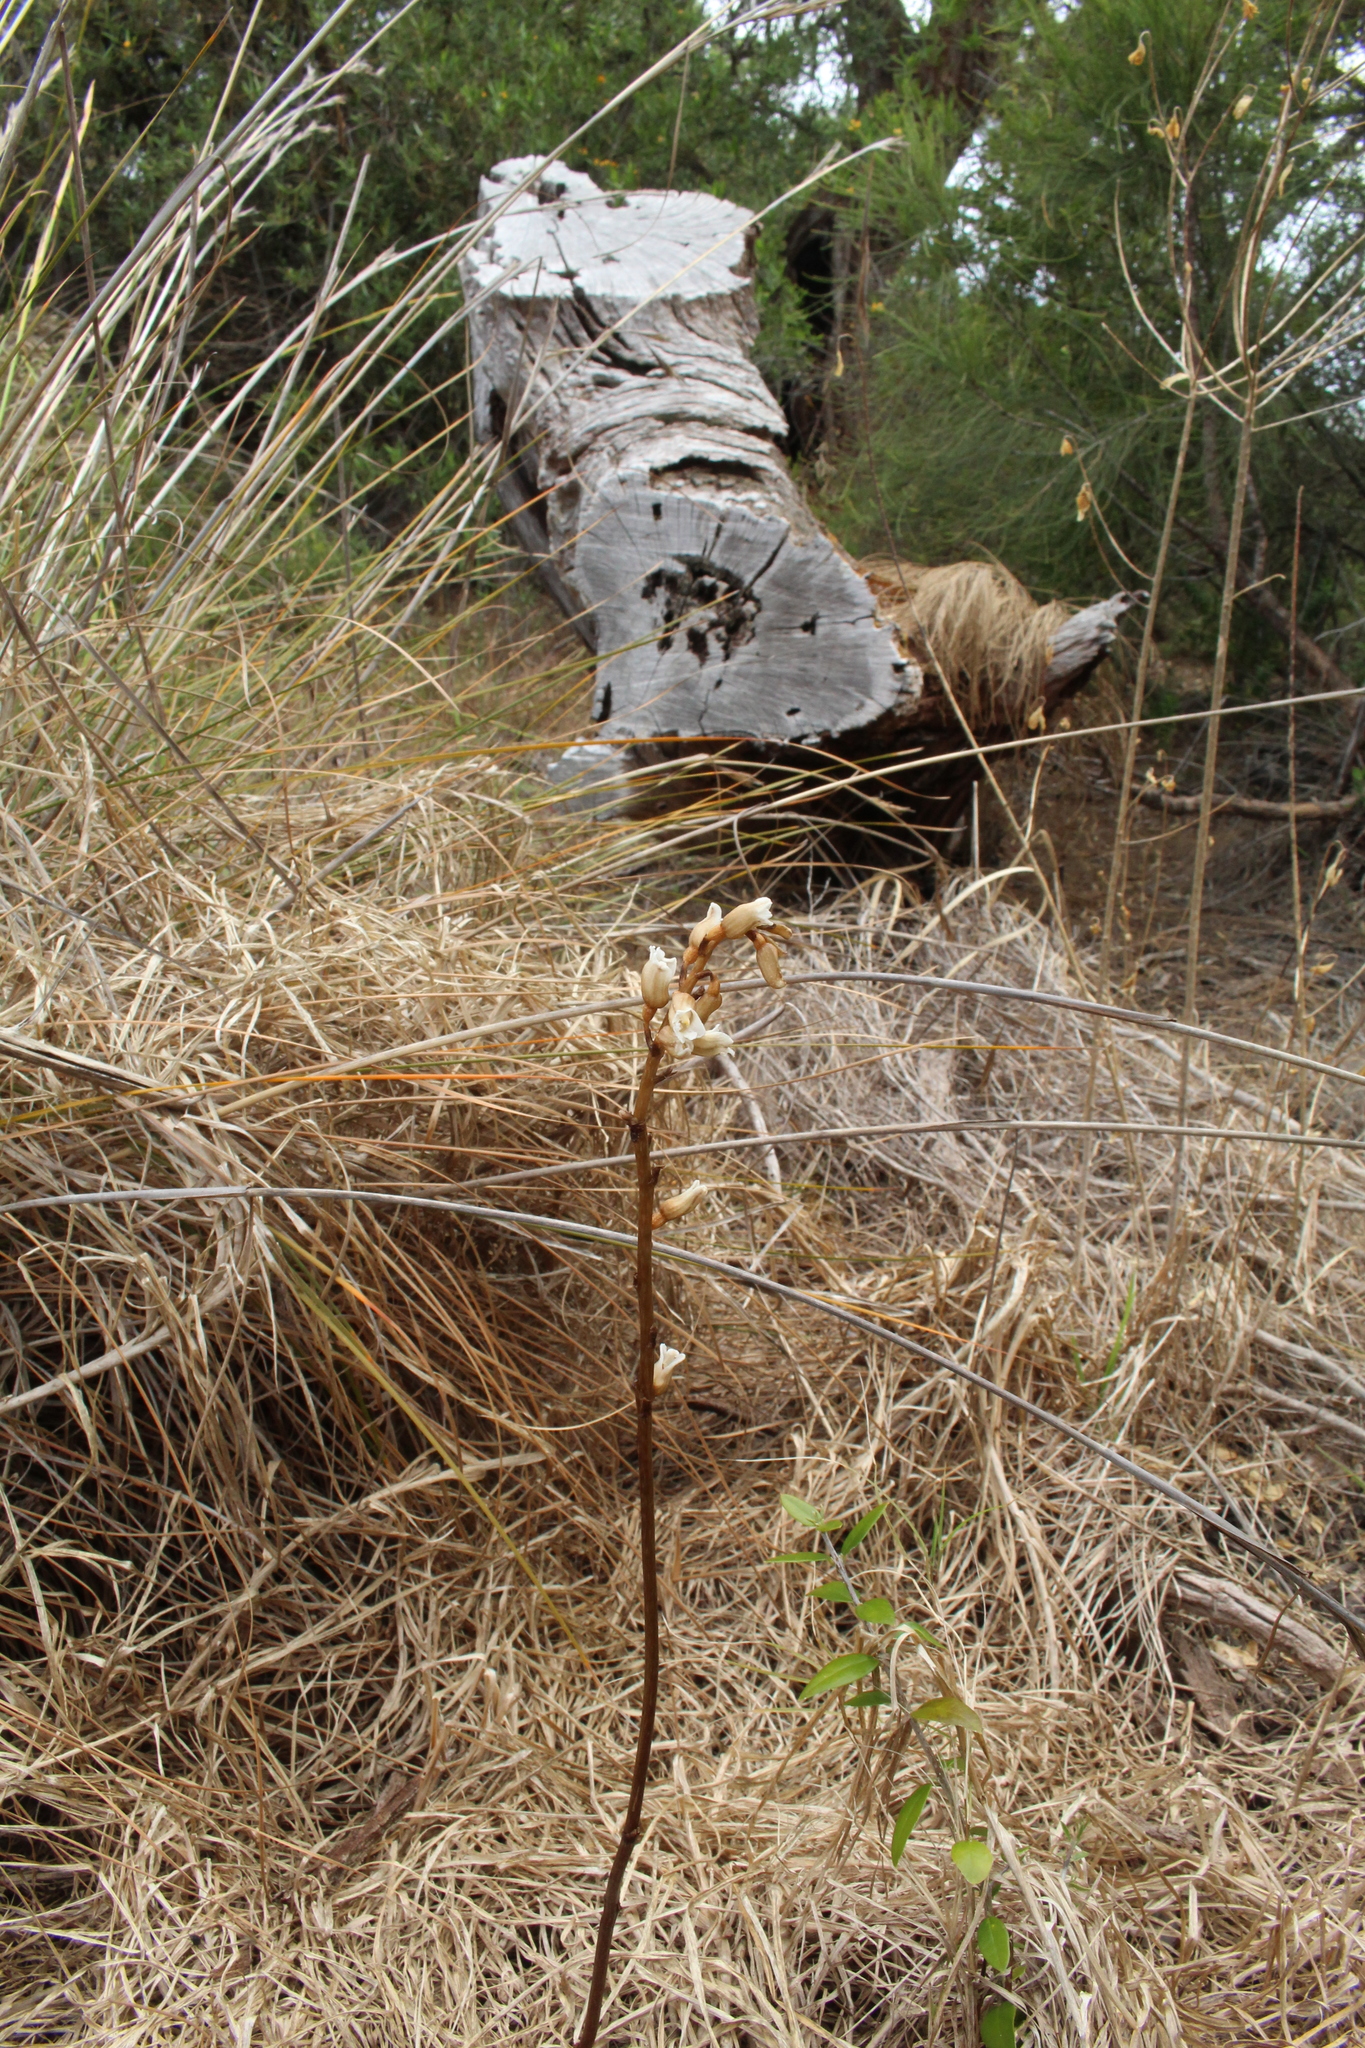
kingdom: Plantae
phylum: Tracheophyta
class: Liliopsida
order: Asparagales
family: Orchidaceae
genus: Gastrodia
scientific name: Gastrodia lacista
